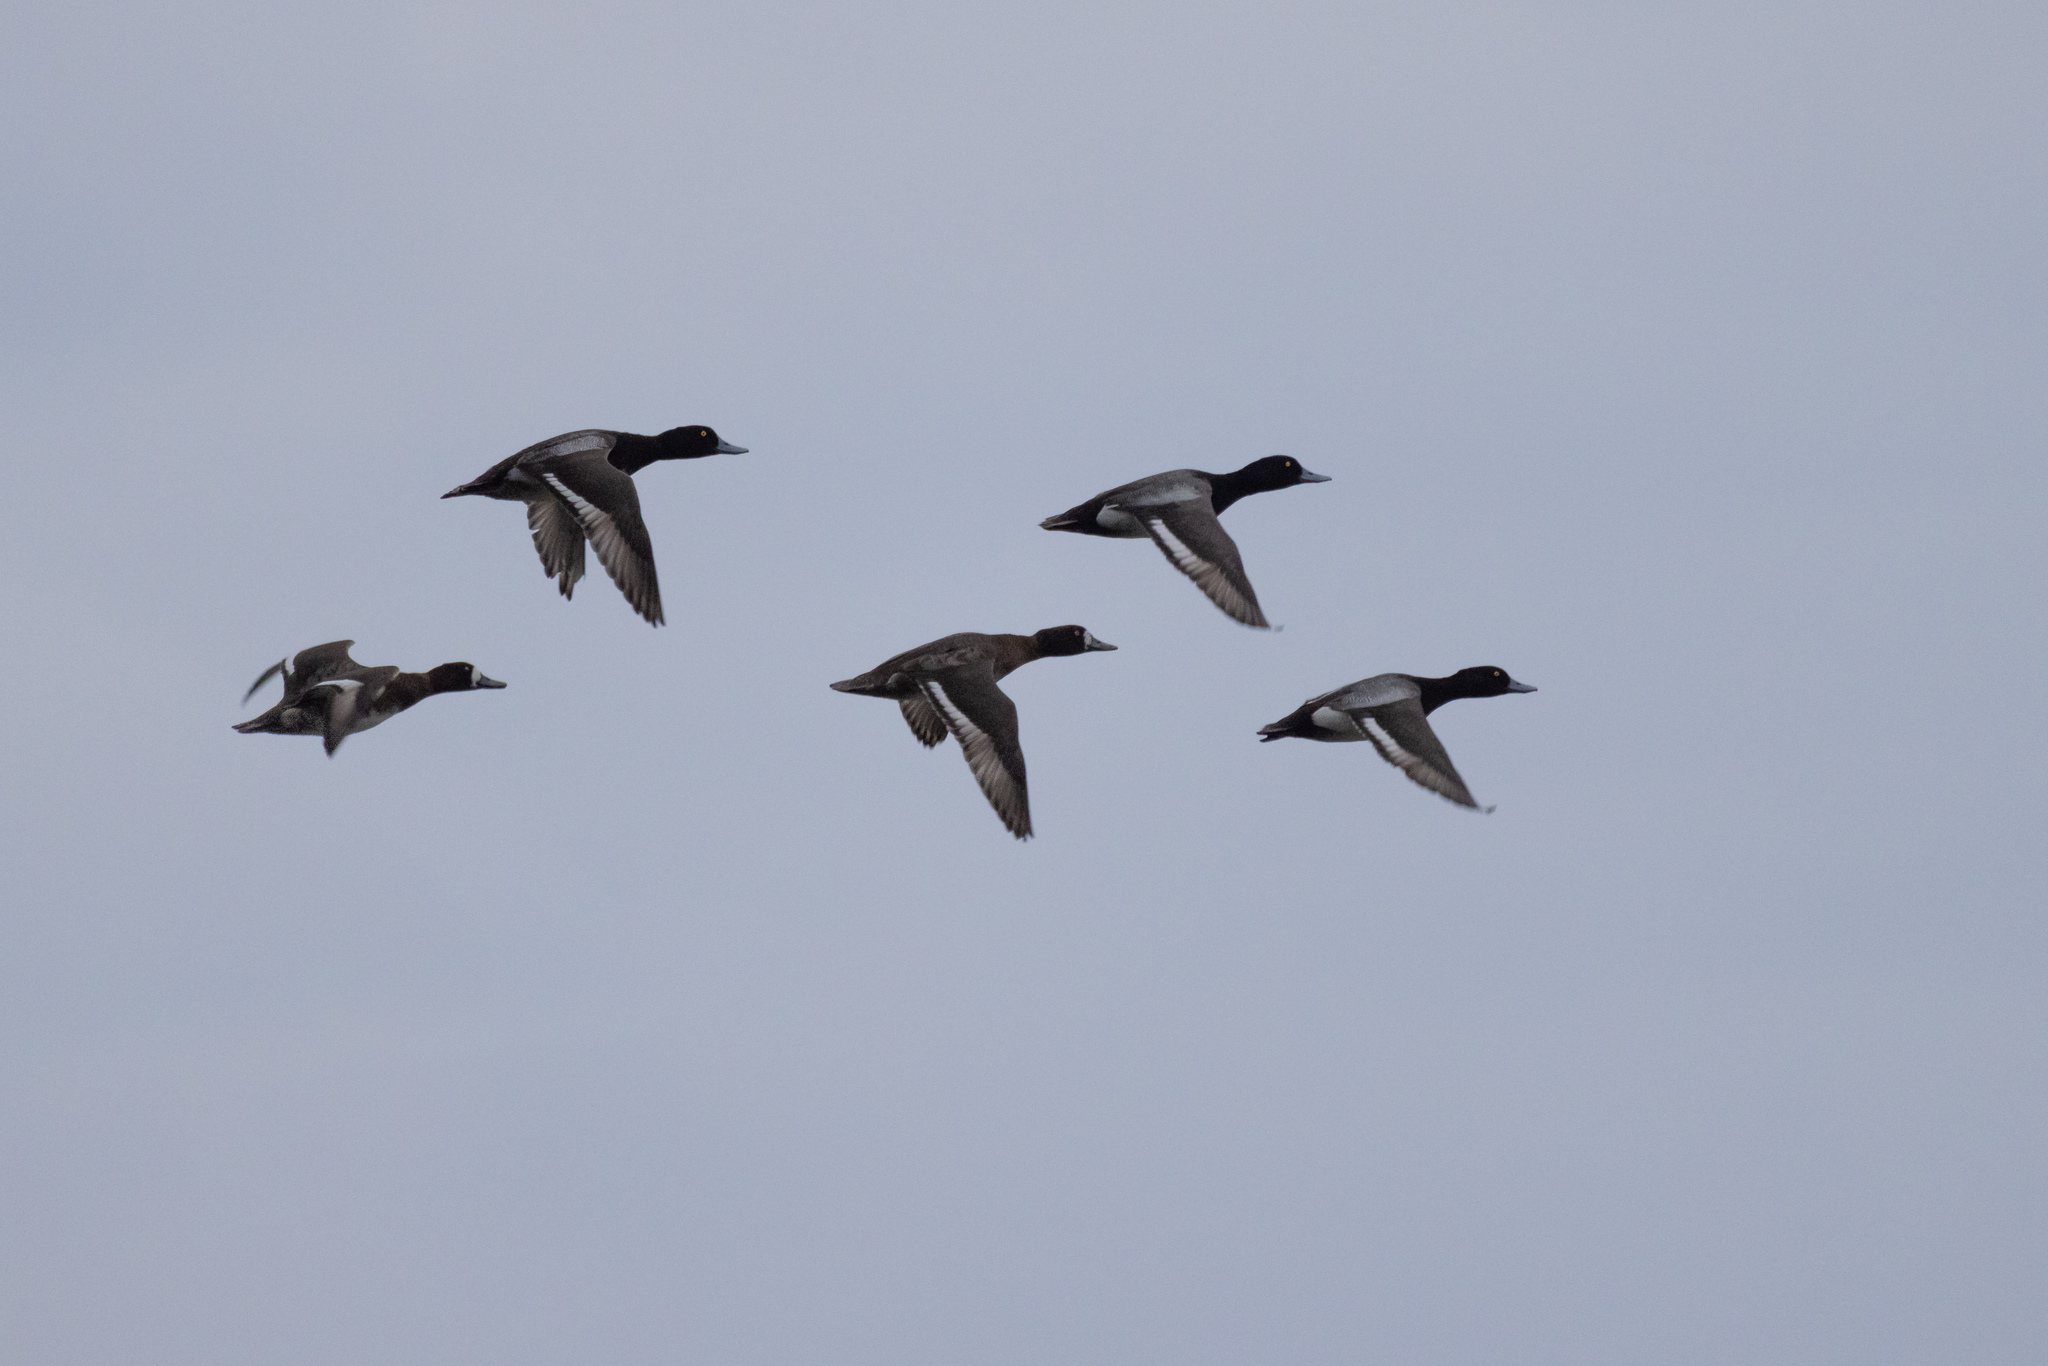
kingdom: Animalia
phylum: Chordata
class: Aves
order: Anseriformes
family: Anatidae
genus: Aythya
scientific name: Aythya affinis
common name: Lesser scaup
